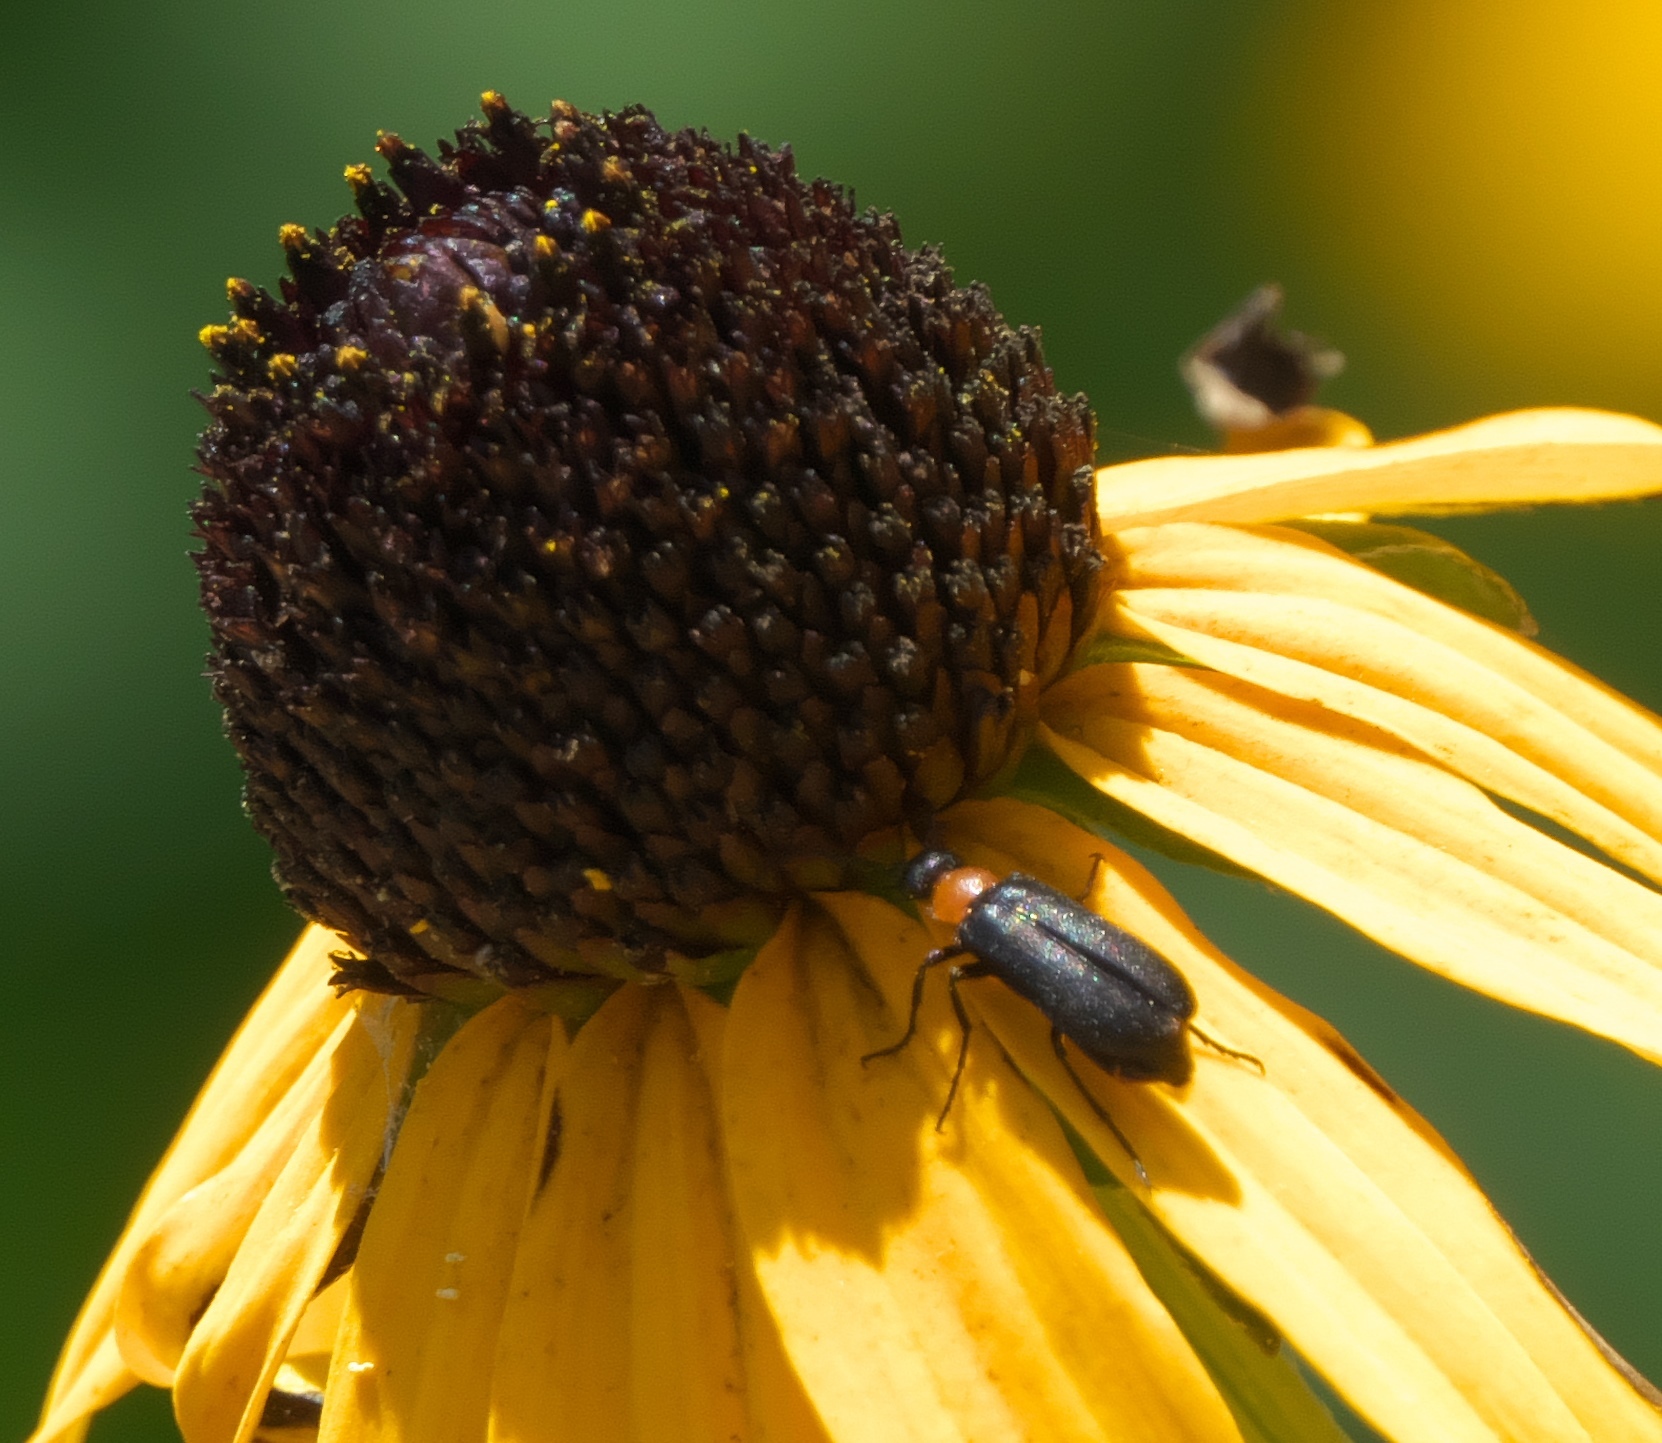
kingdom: Animalia
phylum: Arthropoda
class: Insecta
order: Coleoptera
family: Meloidae
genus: Nemognatha
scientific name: Nemognatha nemorensis
